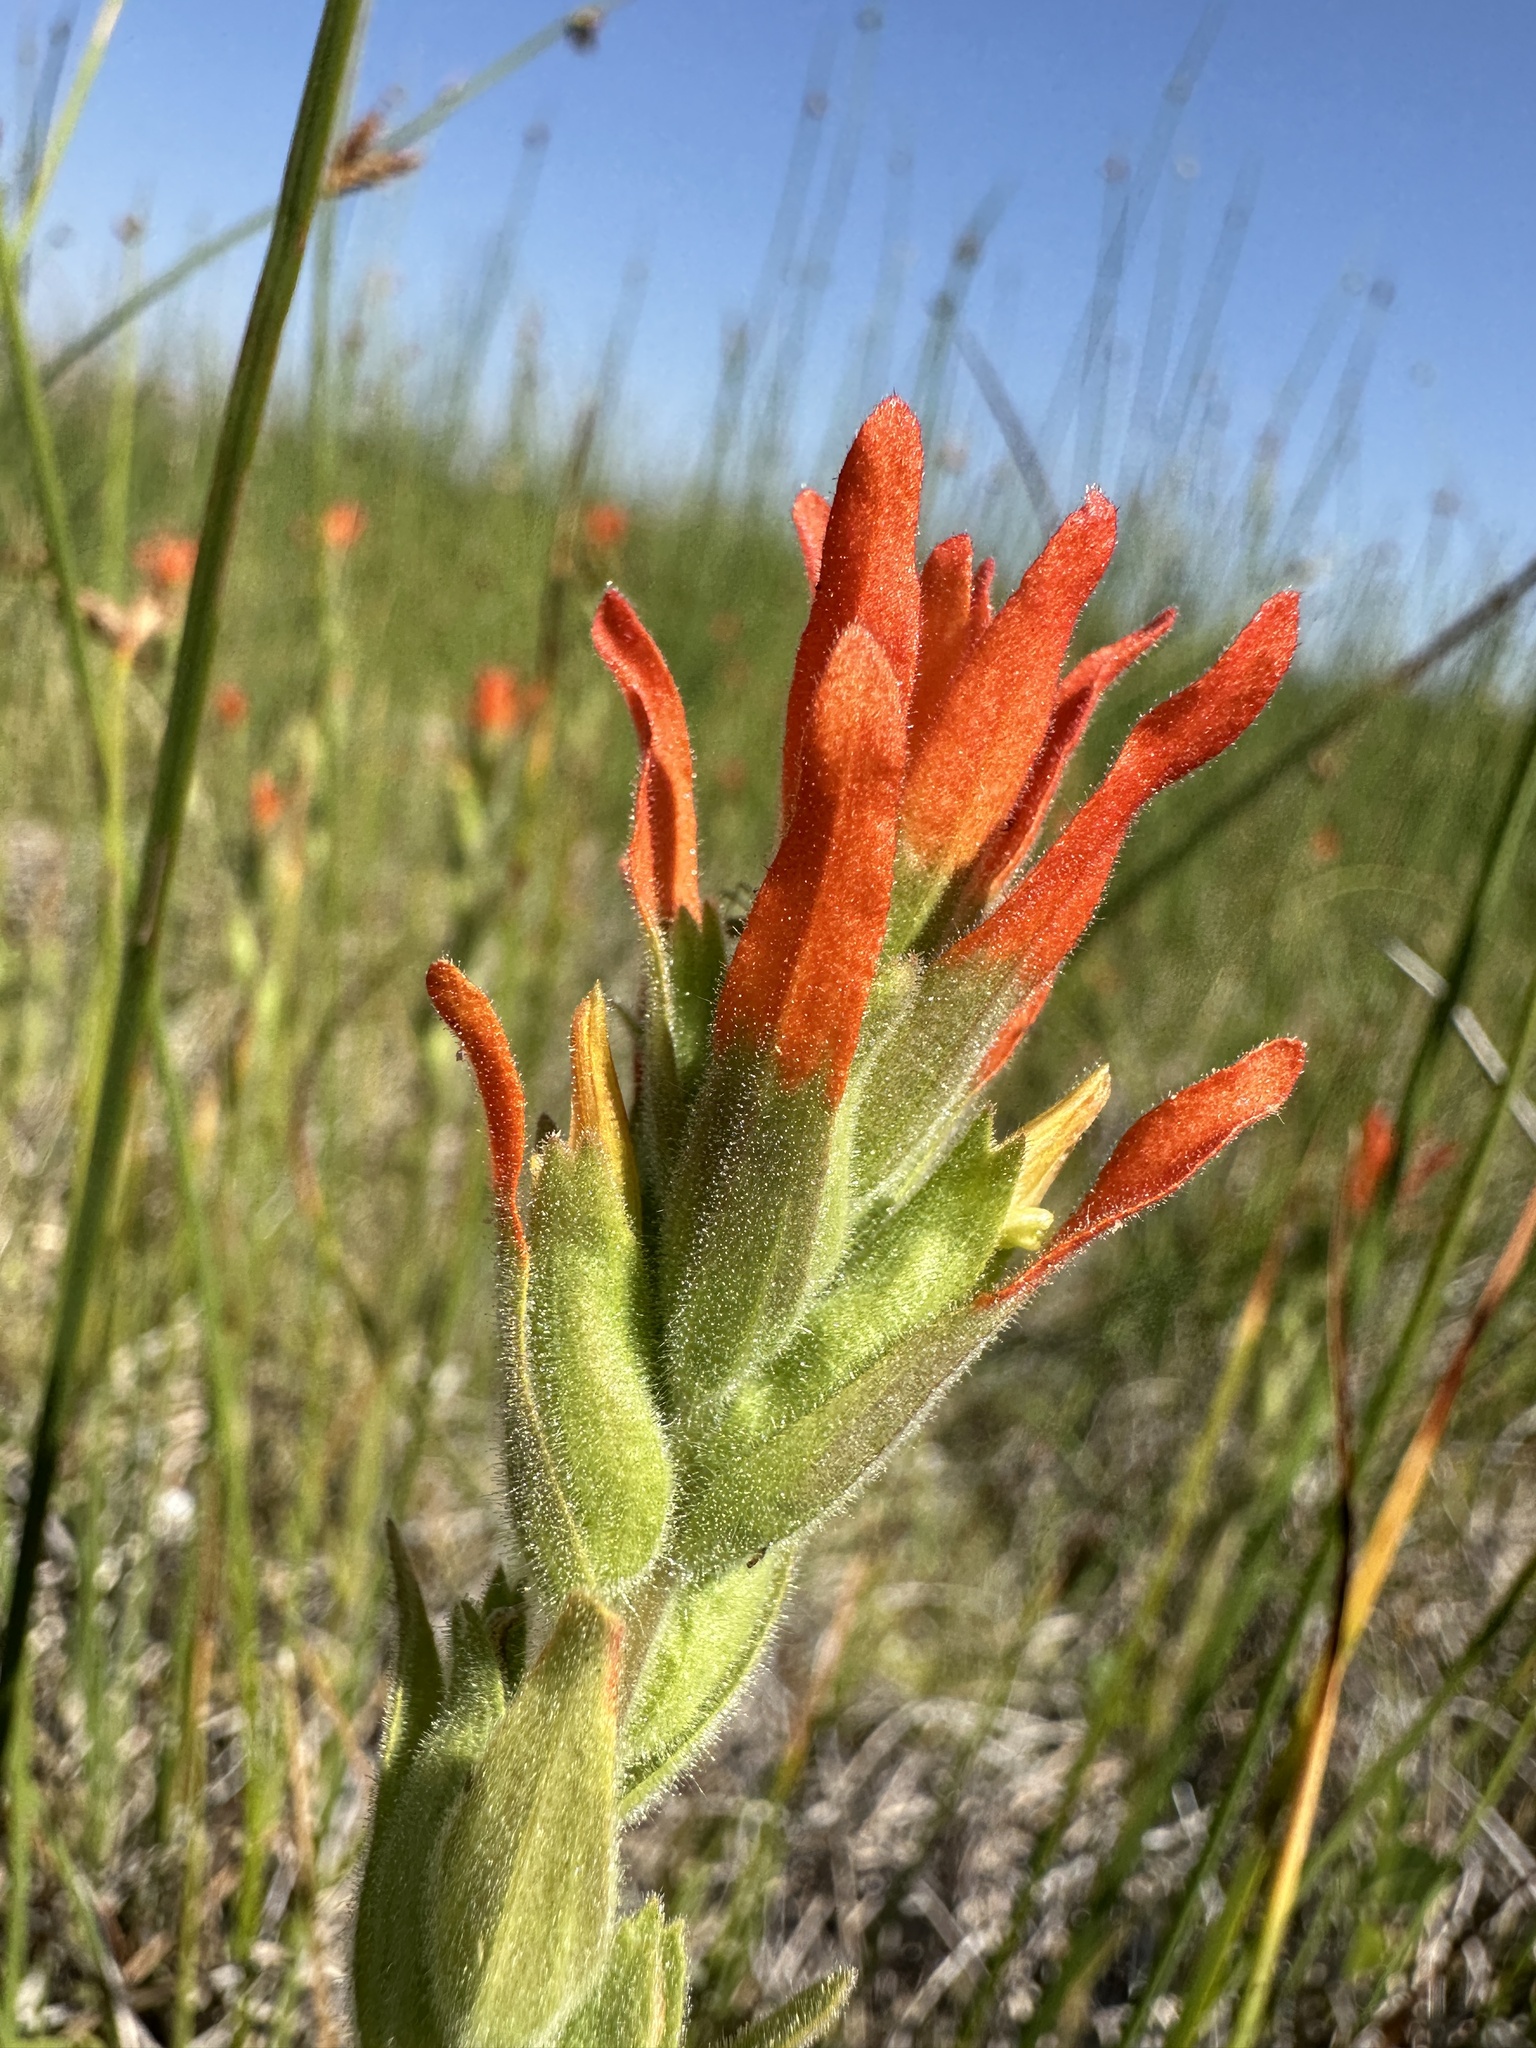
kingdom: Plantae
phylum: Tracheophyta
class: Magnoliopsida
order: Lamiales
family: Orobanchaceae
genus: Castilleja
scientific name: Castilleja minor
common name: Seep paintbrush
